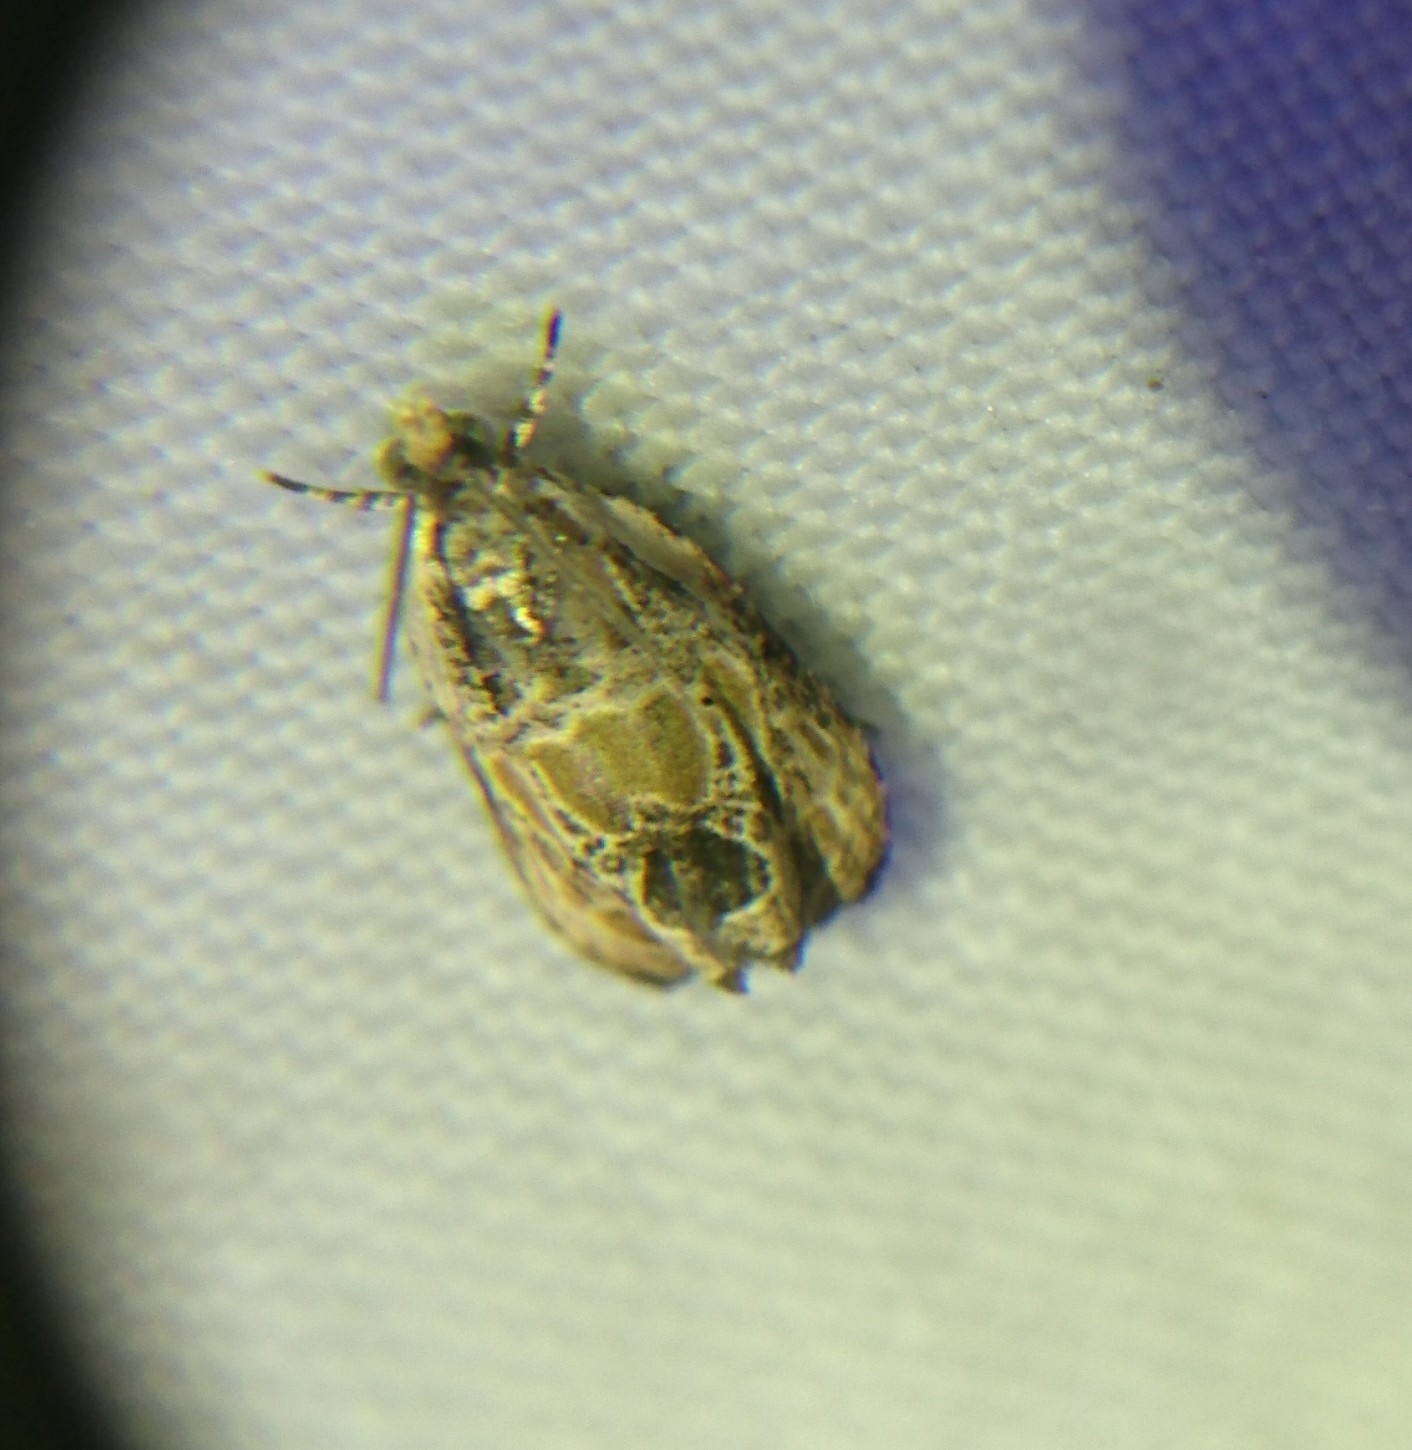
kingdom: Animalia
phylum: Arthropoda
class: Insecta
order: Lepidoptera
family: Tortricidae
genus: Olethreutes
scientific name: Olethreutes griseoalbana
